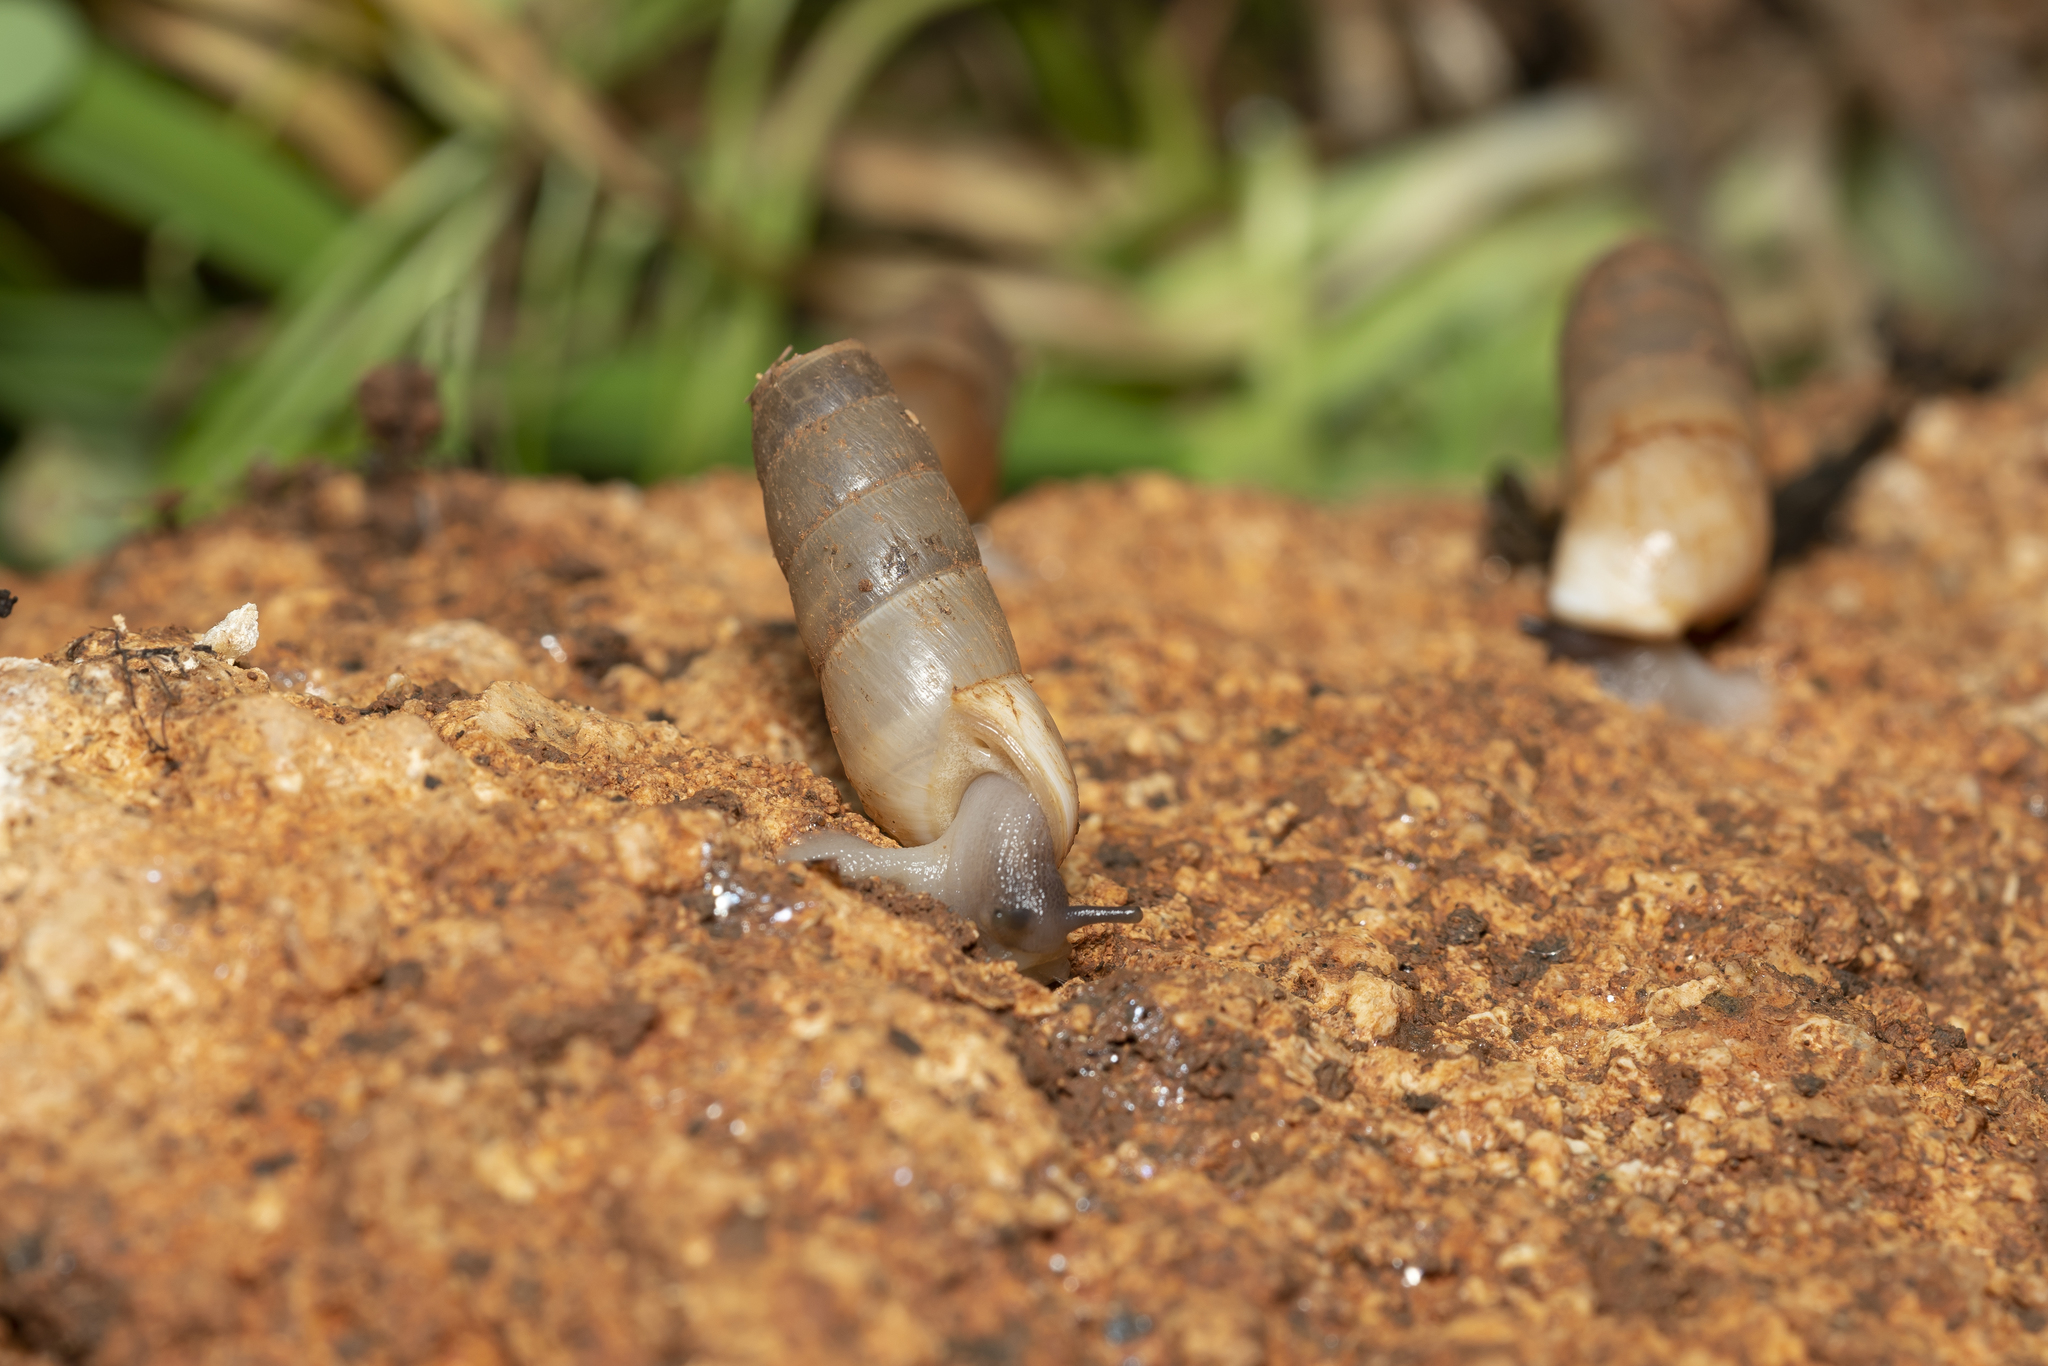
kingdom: Animalia
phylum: Mollusca
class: Gastropoda
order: Stylommatophora
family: Achatinidae
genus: Rumina
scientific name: Rumina saharica
